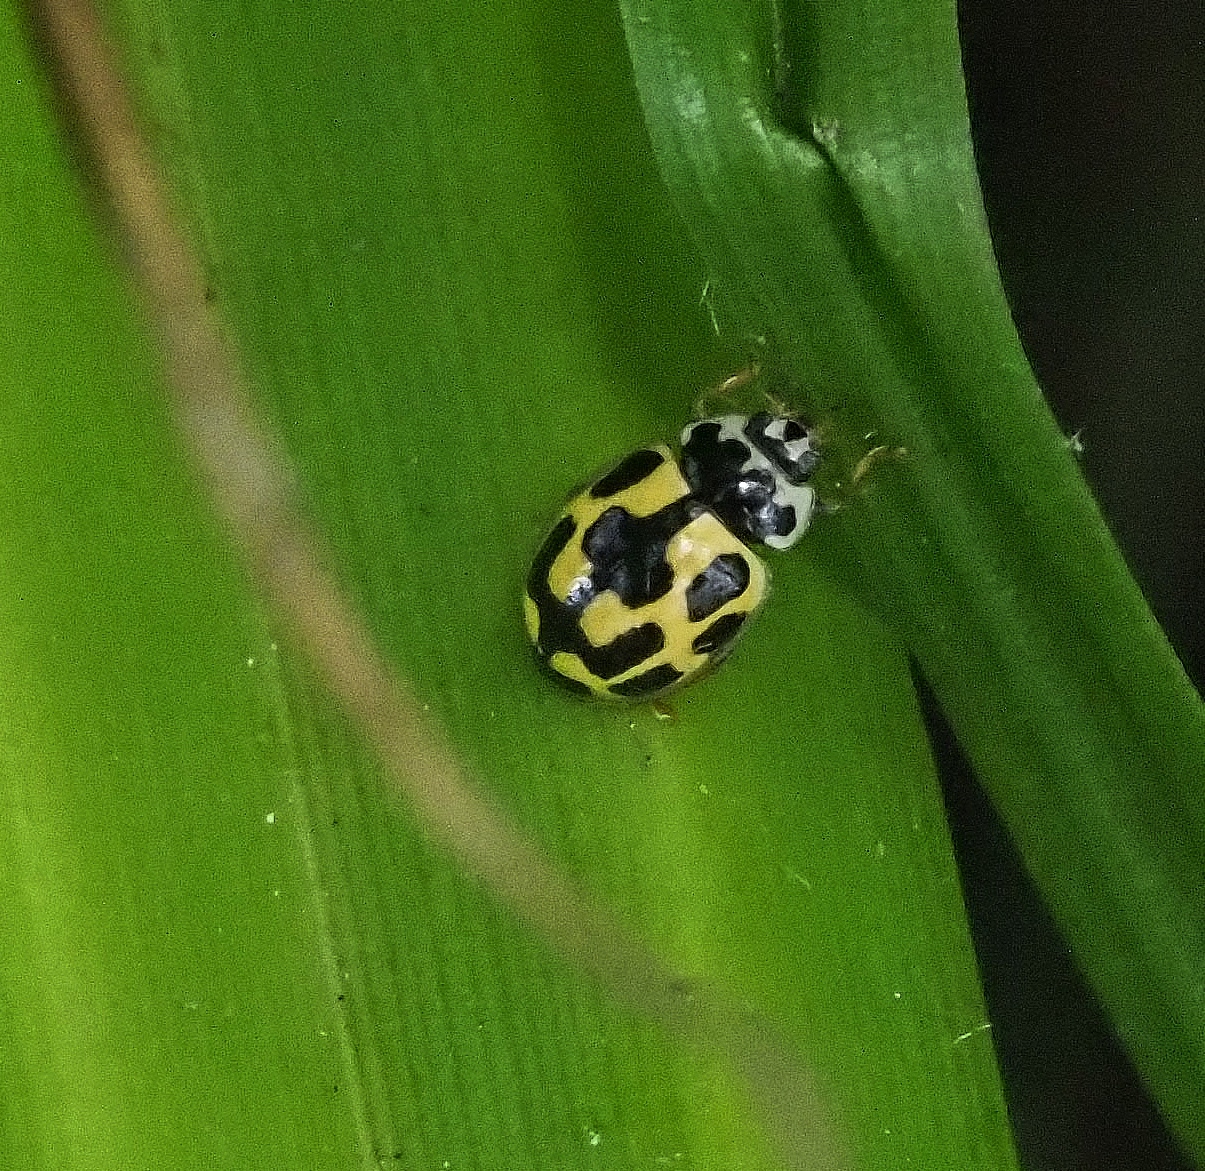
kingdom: Animalia
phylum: Arthropoda
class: Insecta
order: Coleoptera
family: Coccinellidae
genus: Propylaea
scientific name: Propylaea quatuordecimpunctata
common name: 14-spotted ladybird beetle
